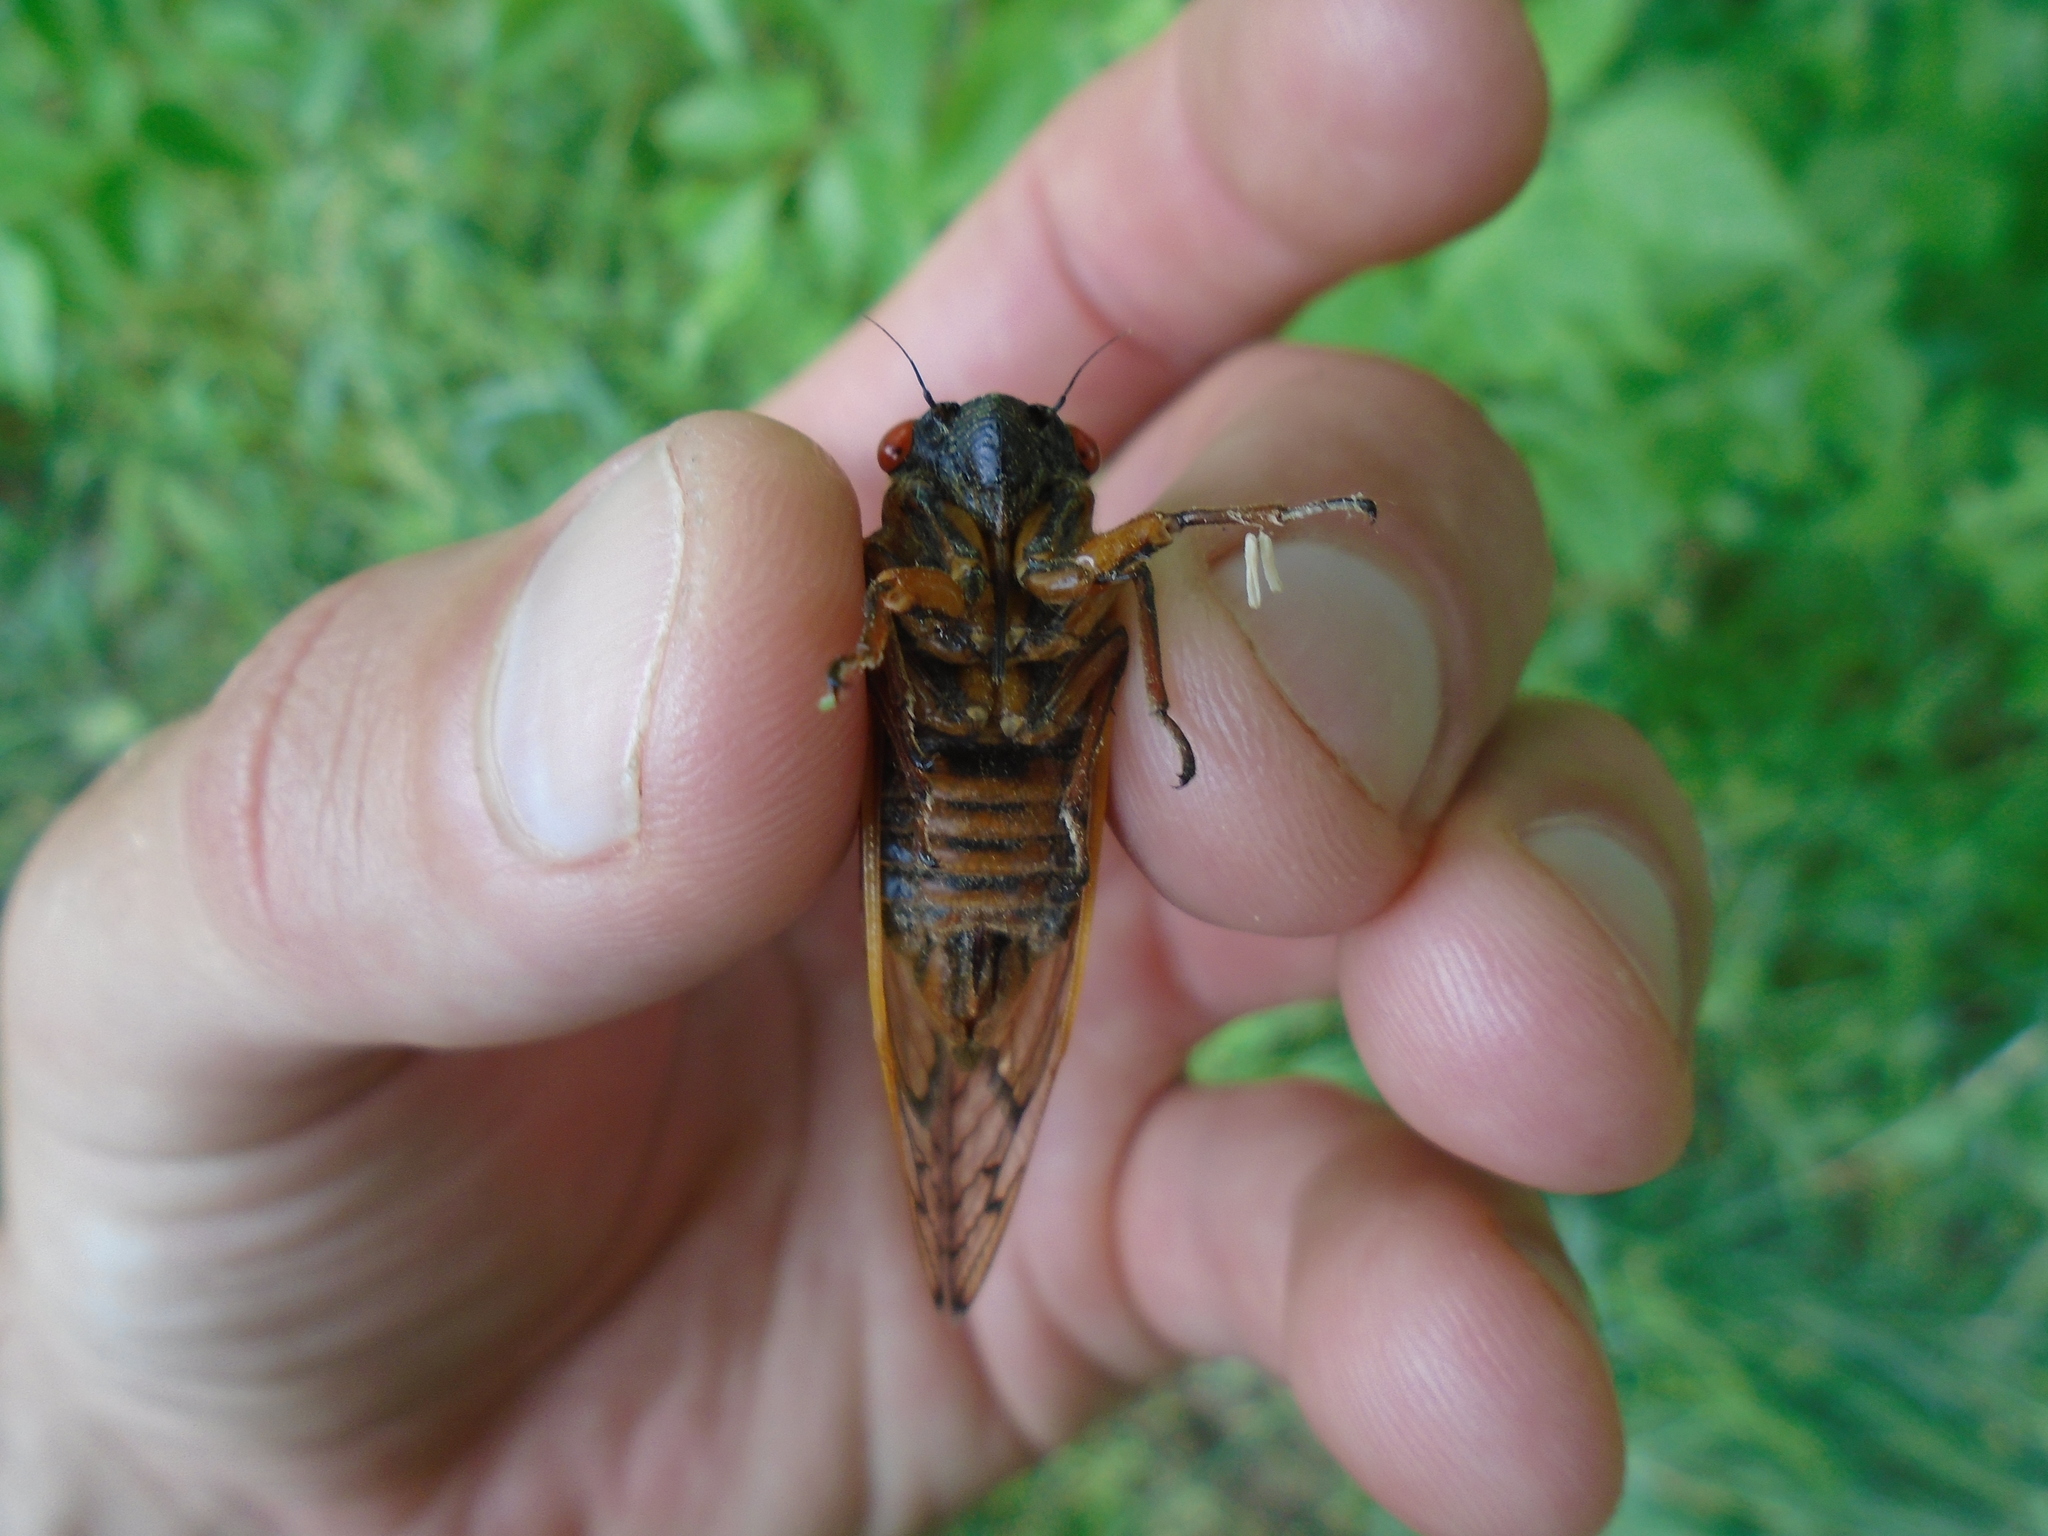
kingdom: Animalia
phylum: Arthropoda
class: Insecta
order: Hemiptera
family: Cicadidae
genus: Magicicada
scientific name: Magicicada septendecim
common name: Periodical cicada
